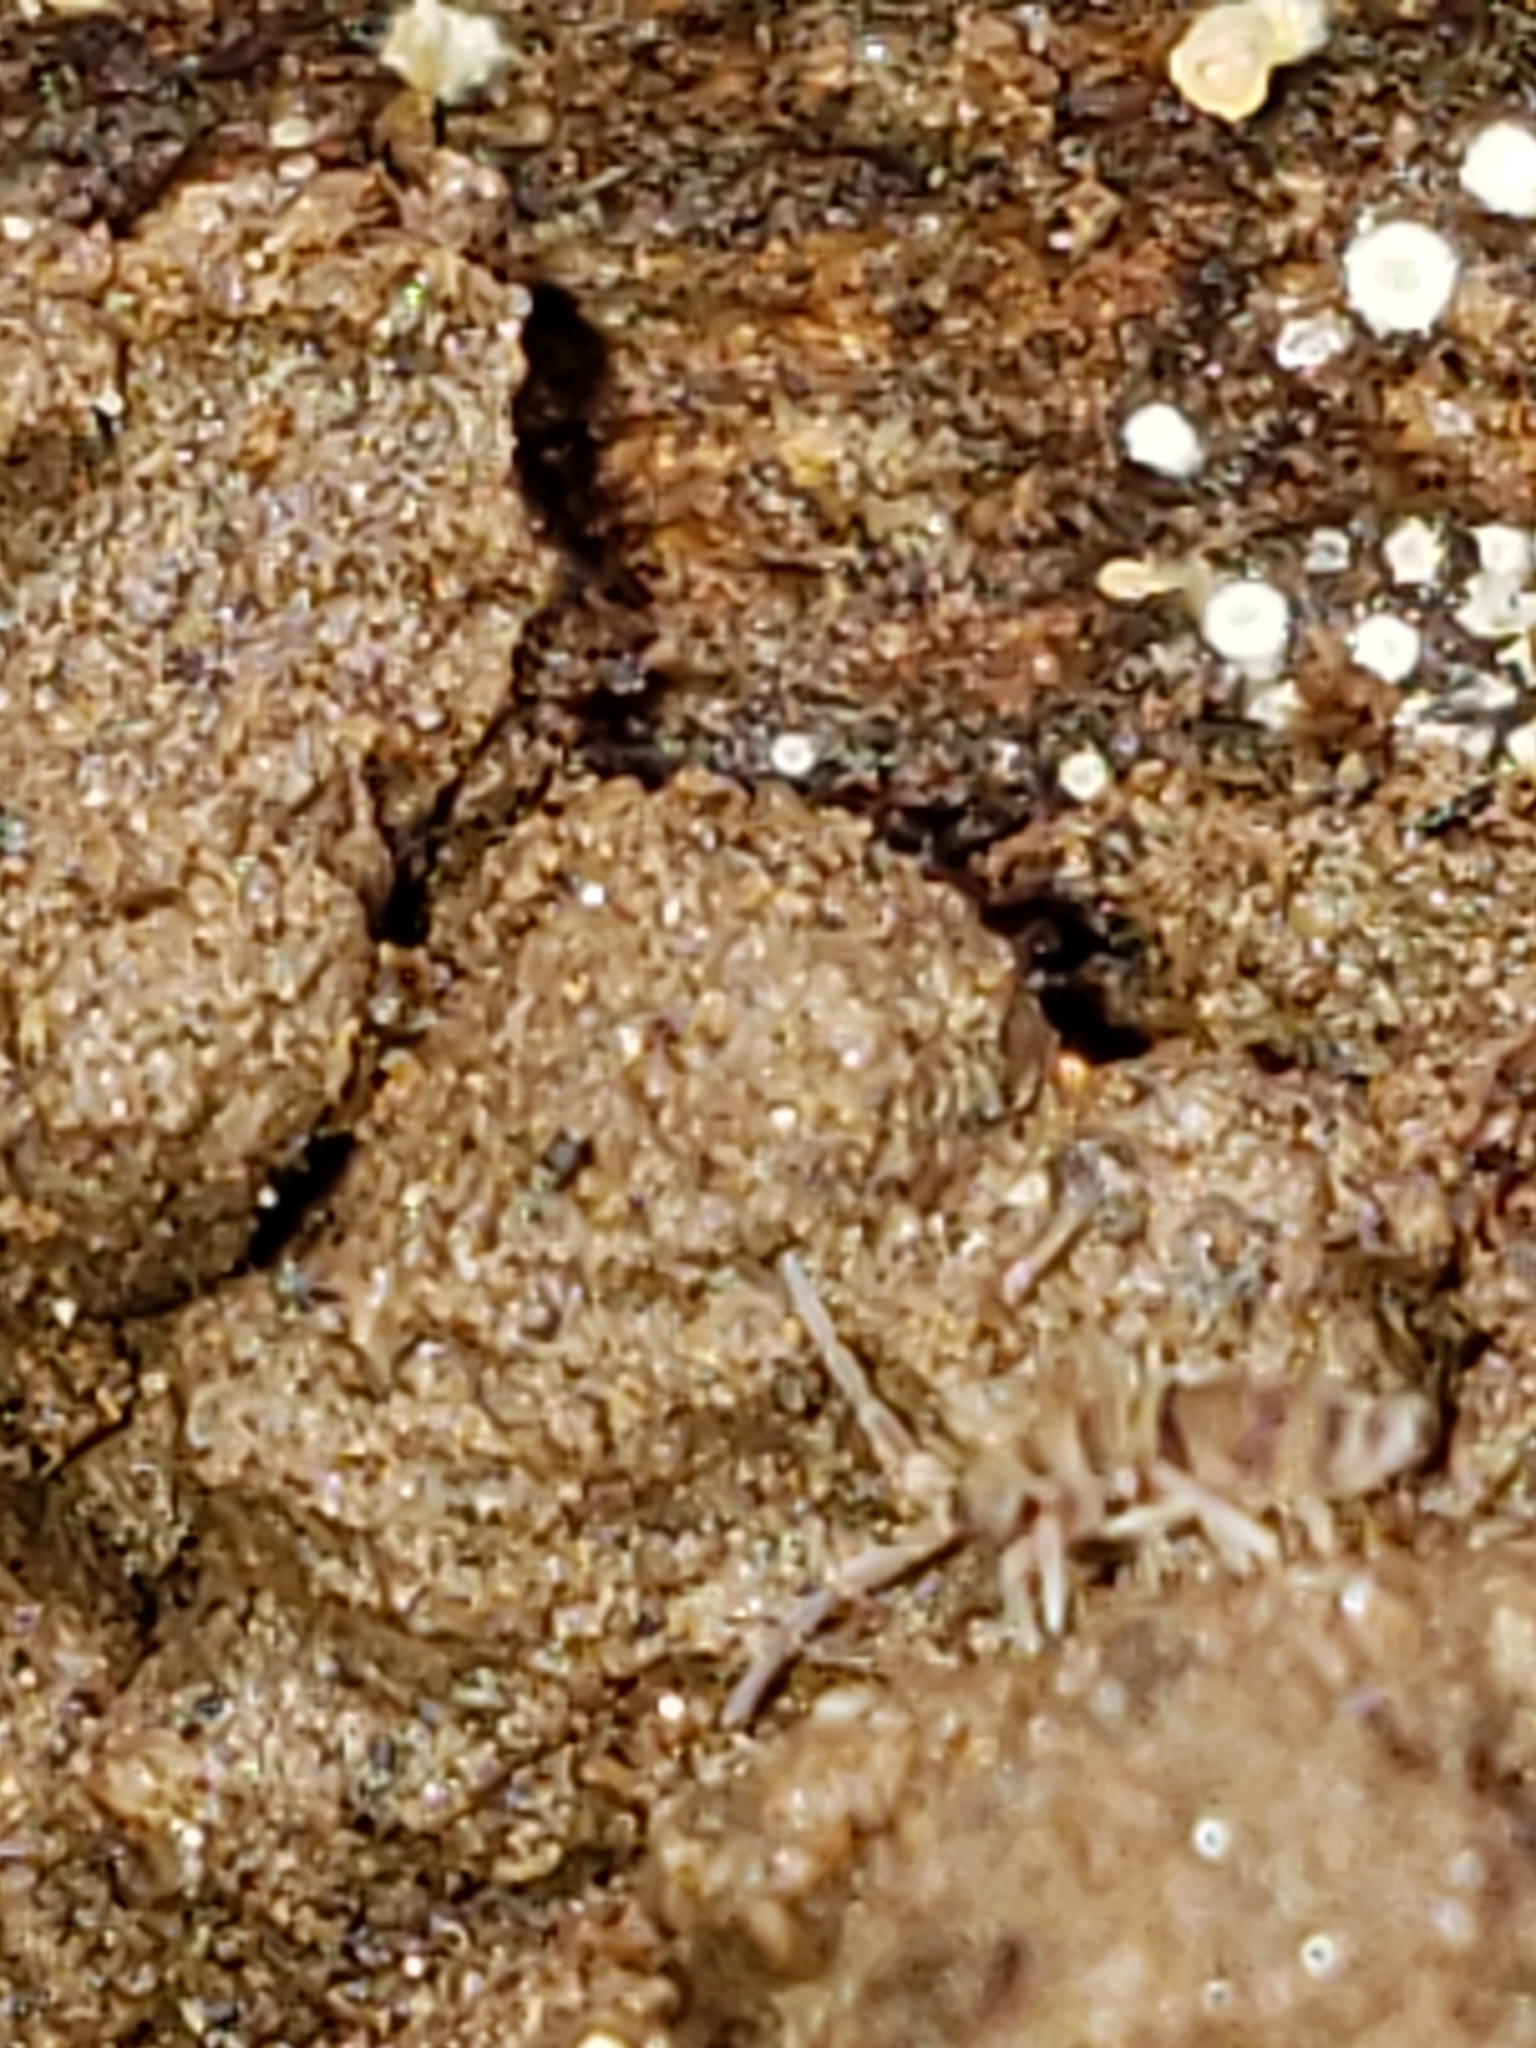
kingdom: Animalia
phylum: Arthropoda
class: Collembola
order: Entomobryomorpha
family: Entomobryidae
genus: Homidia
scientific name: Homidia sauteri
